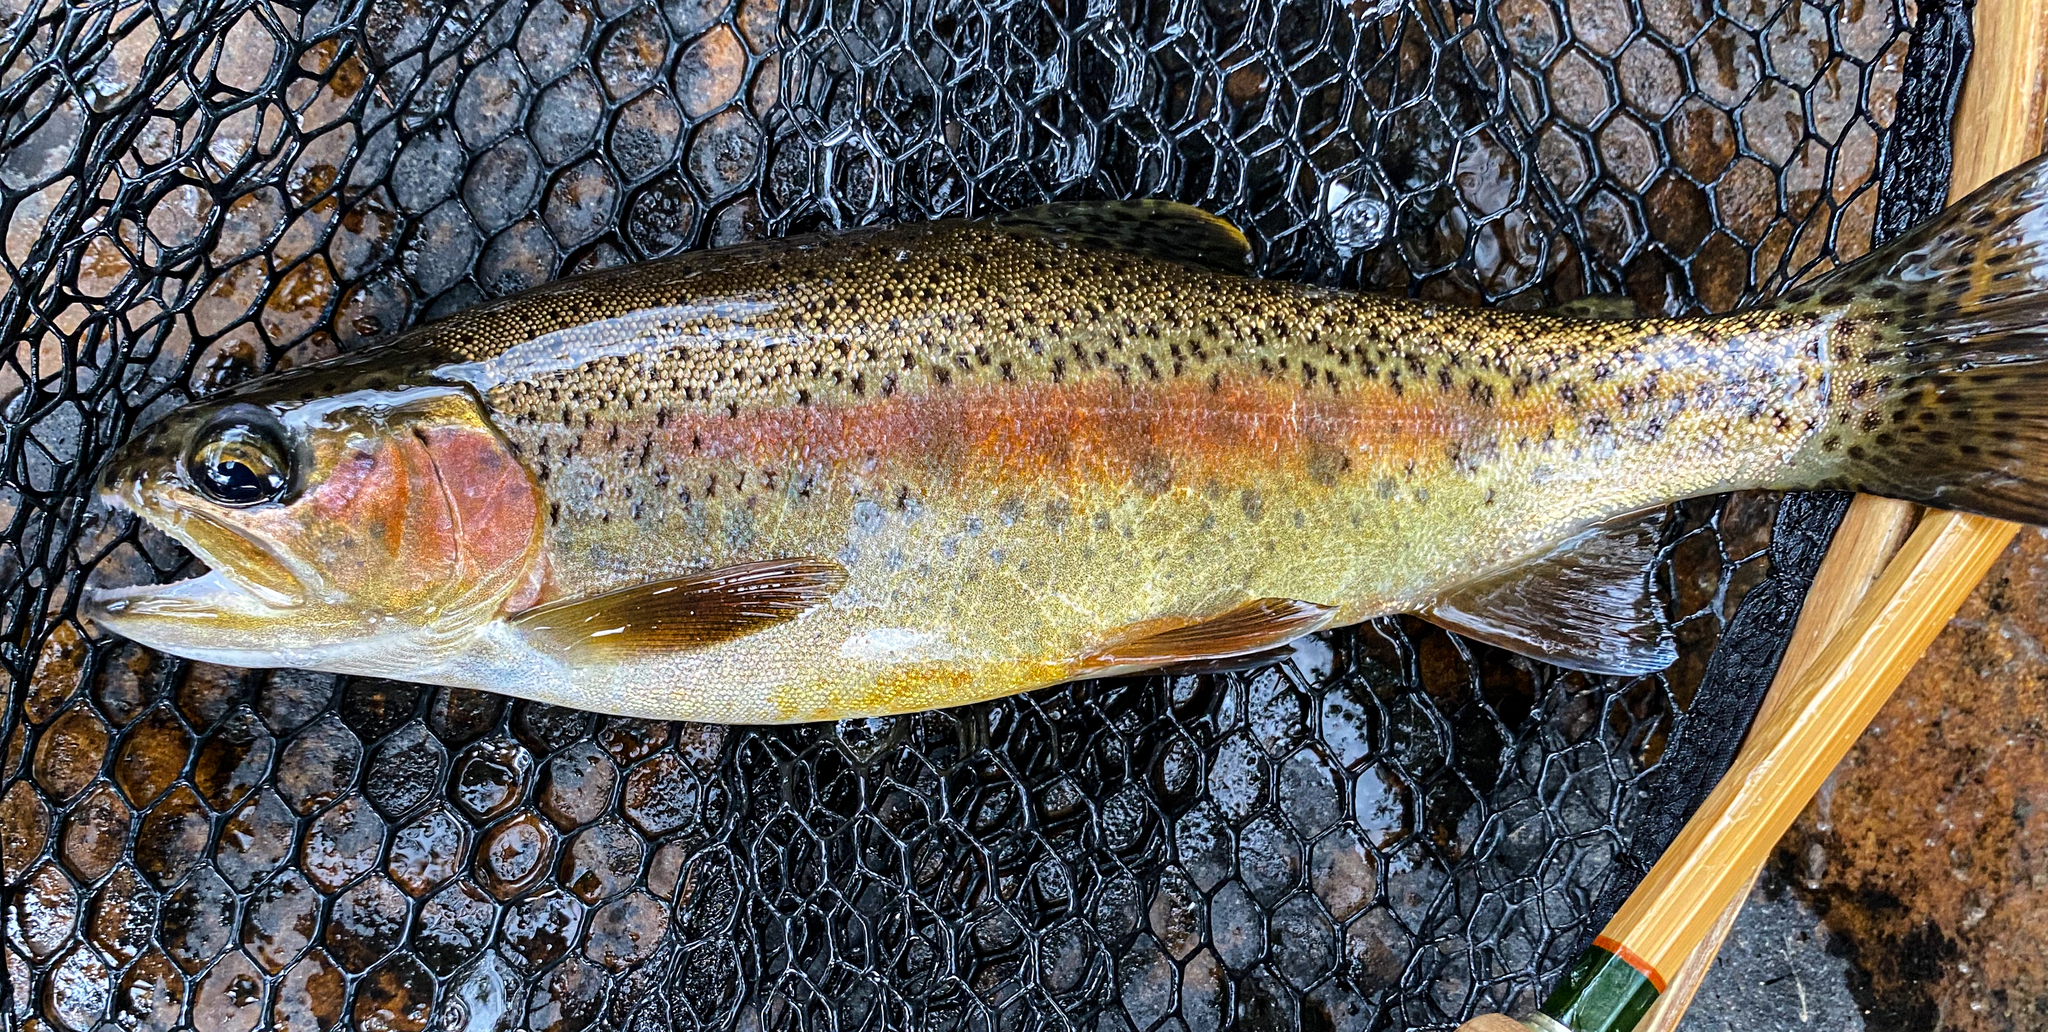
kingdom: Animalia
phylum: Chordata
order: Salmoniformes
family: Salmonidae
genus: Oncorhynchus
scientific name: Oncorhynchus mykiss
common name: Rainbow trout
